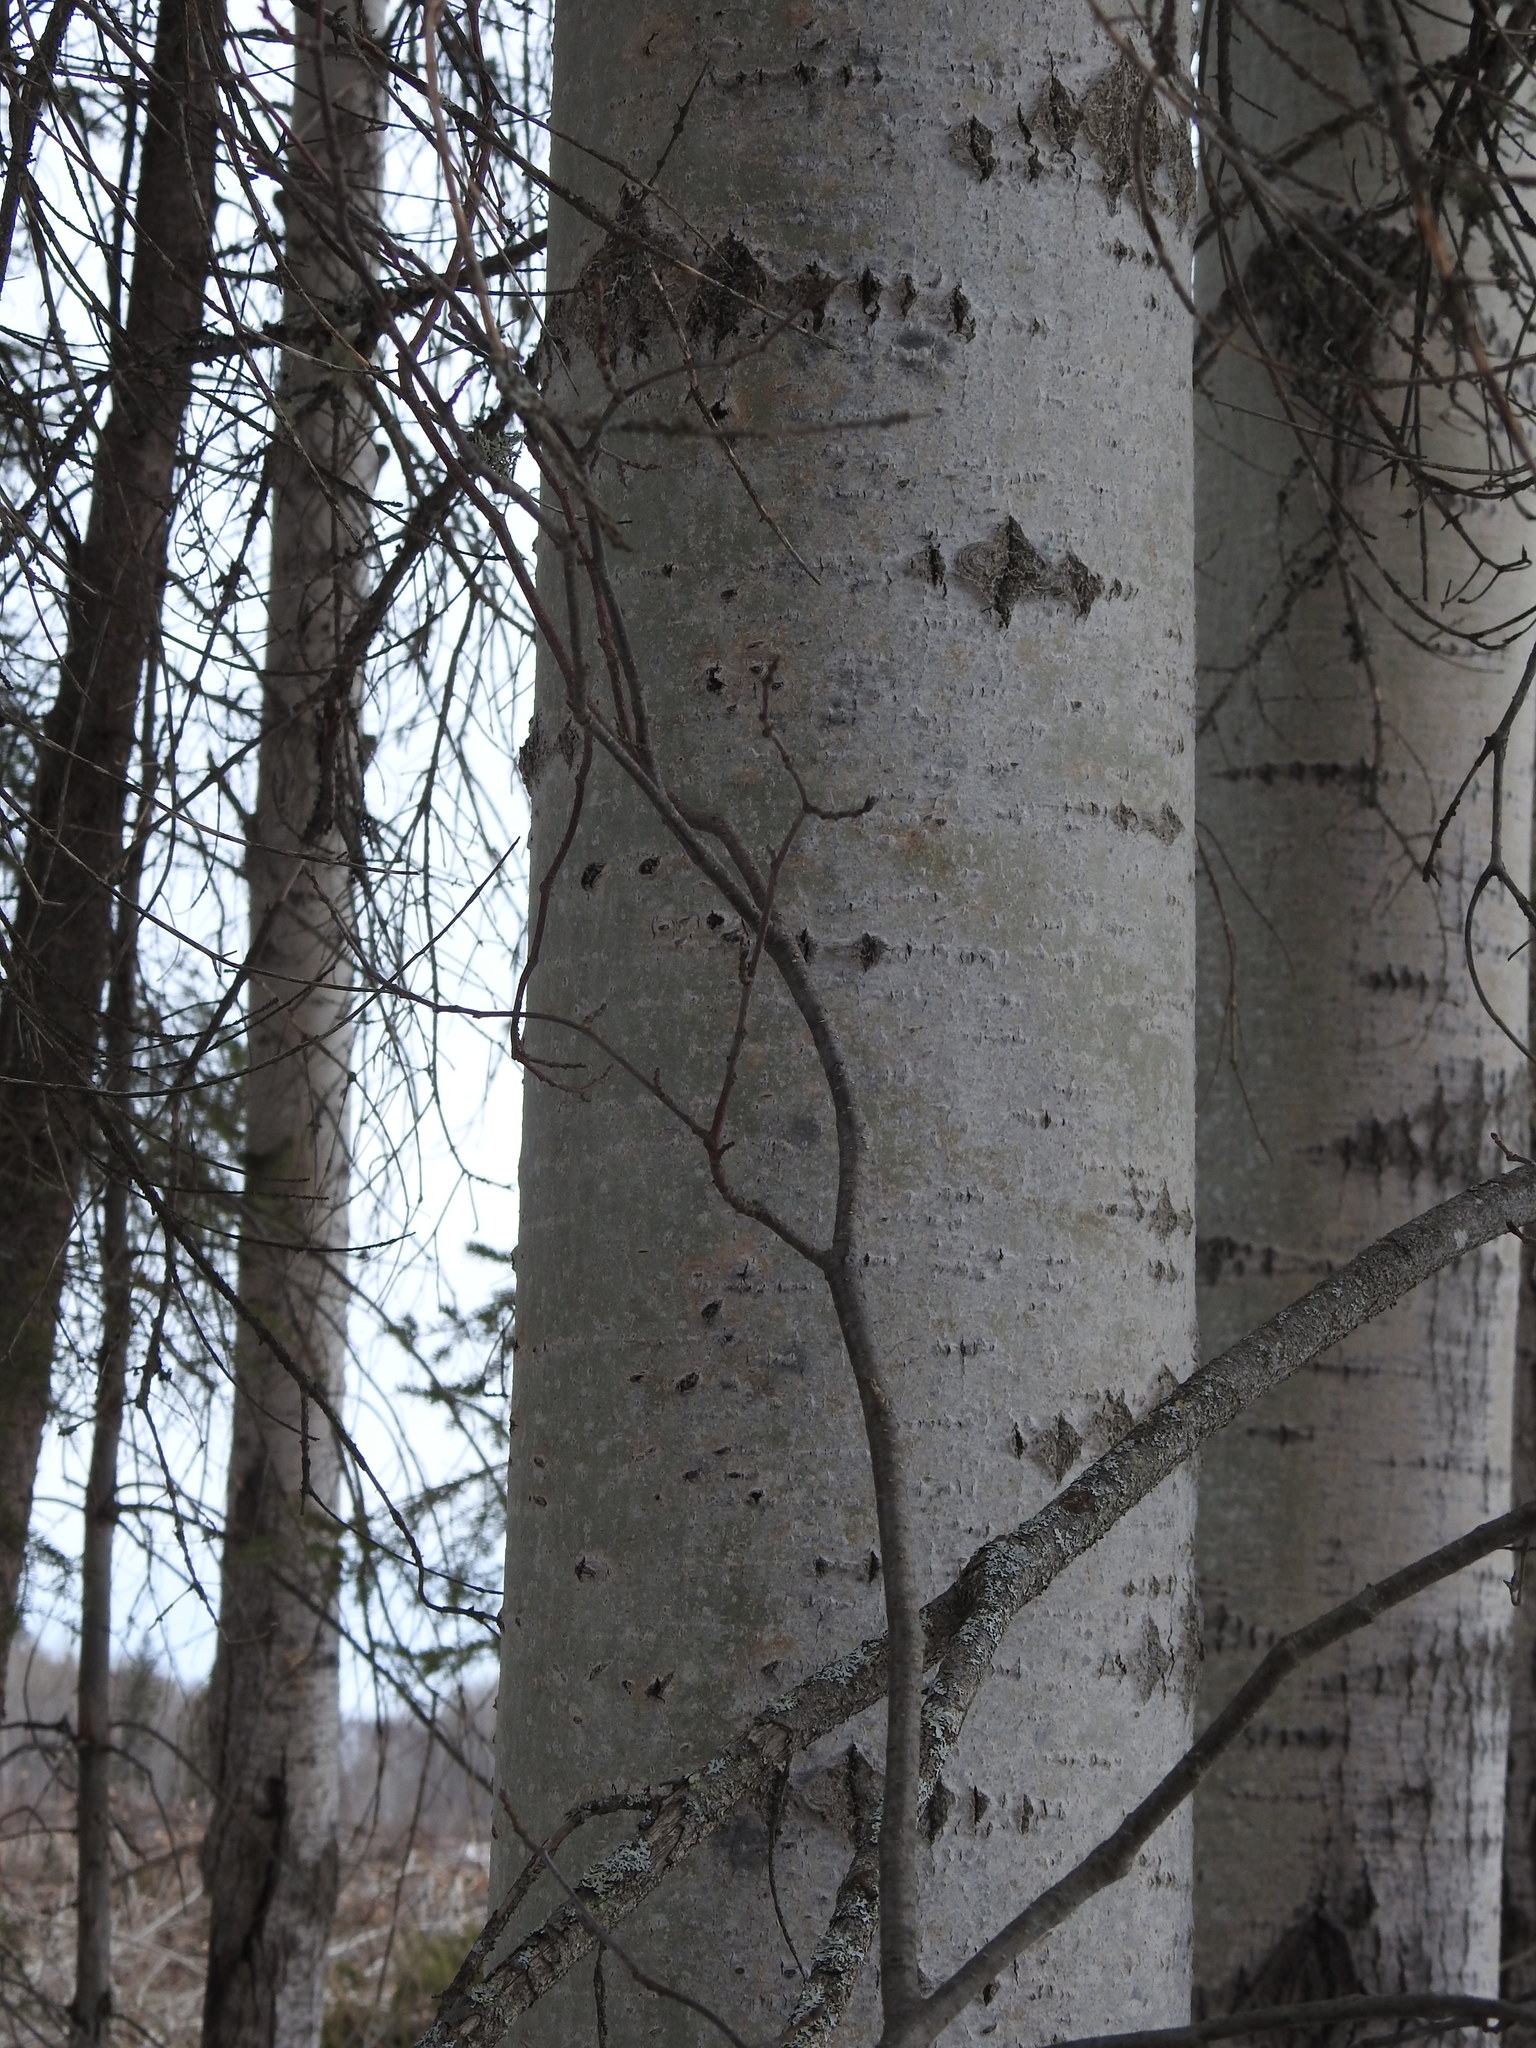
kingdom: Plantae
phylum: Tracheophyta
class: Magnoliopsida
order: Malpighiales
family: Salicaceae
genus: Populus
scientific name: Populus tremuloides
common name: Quaking aspen
